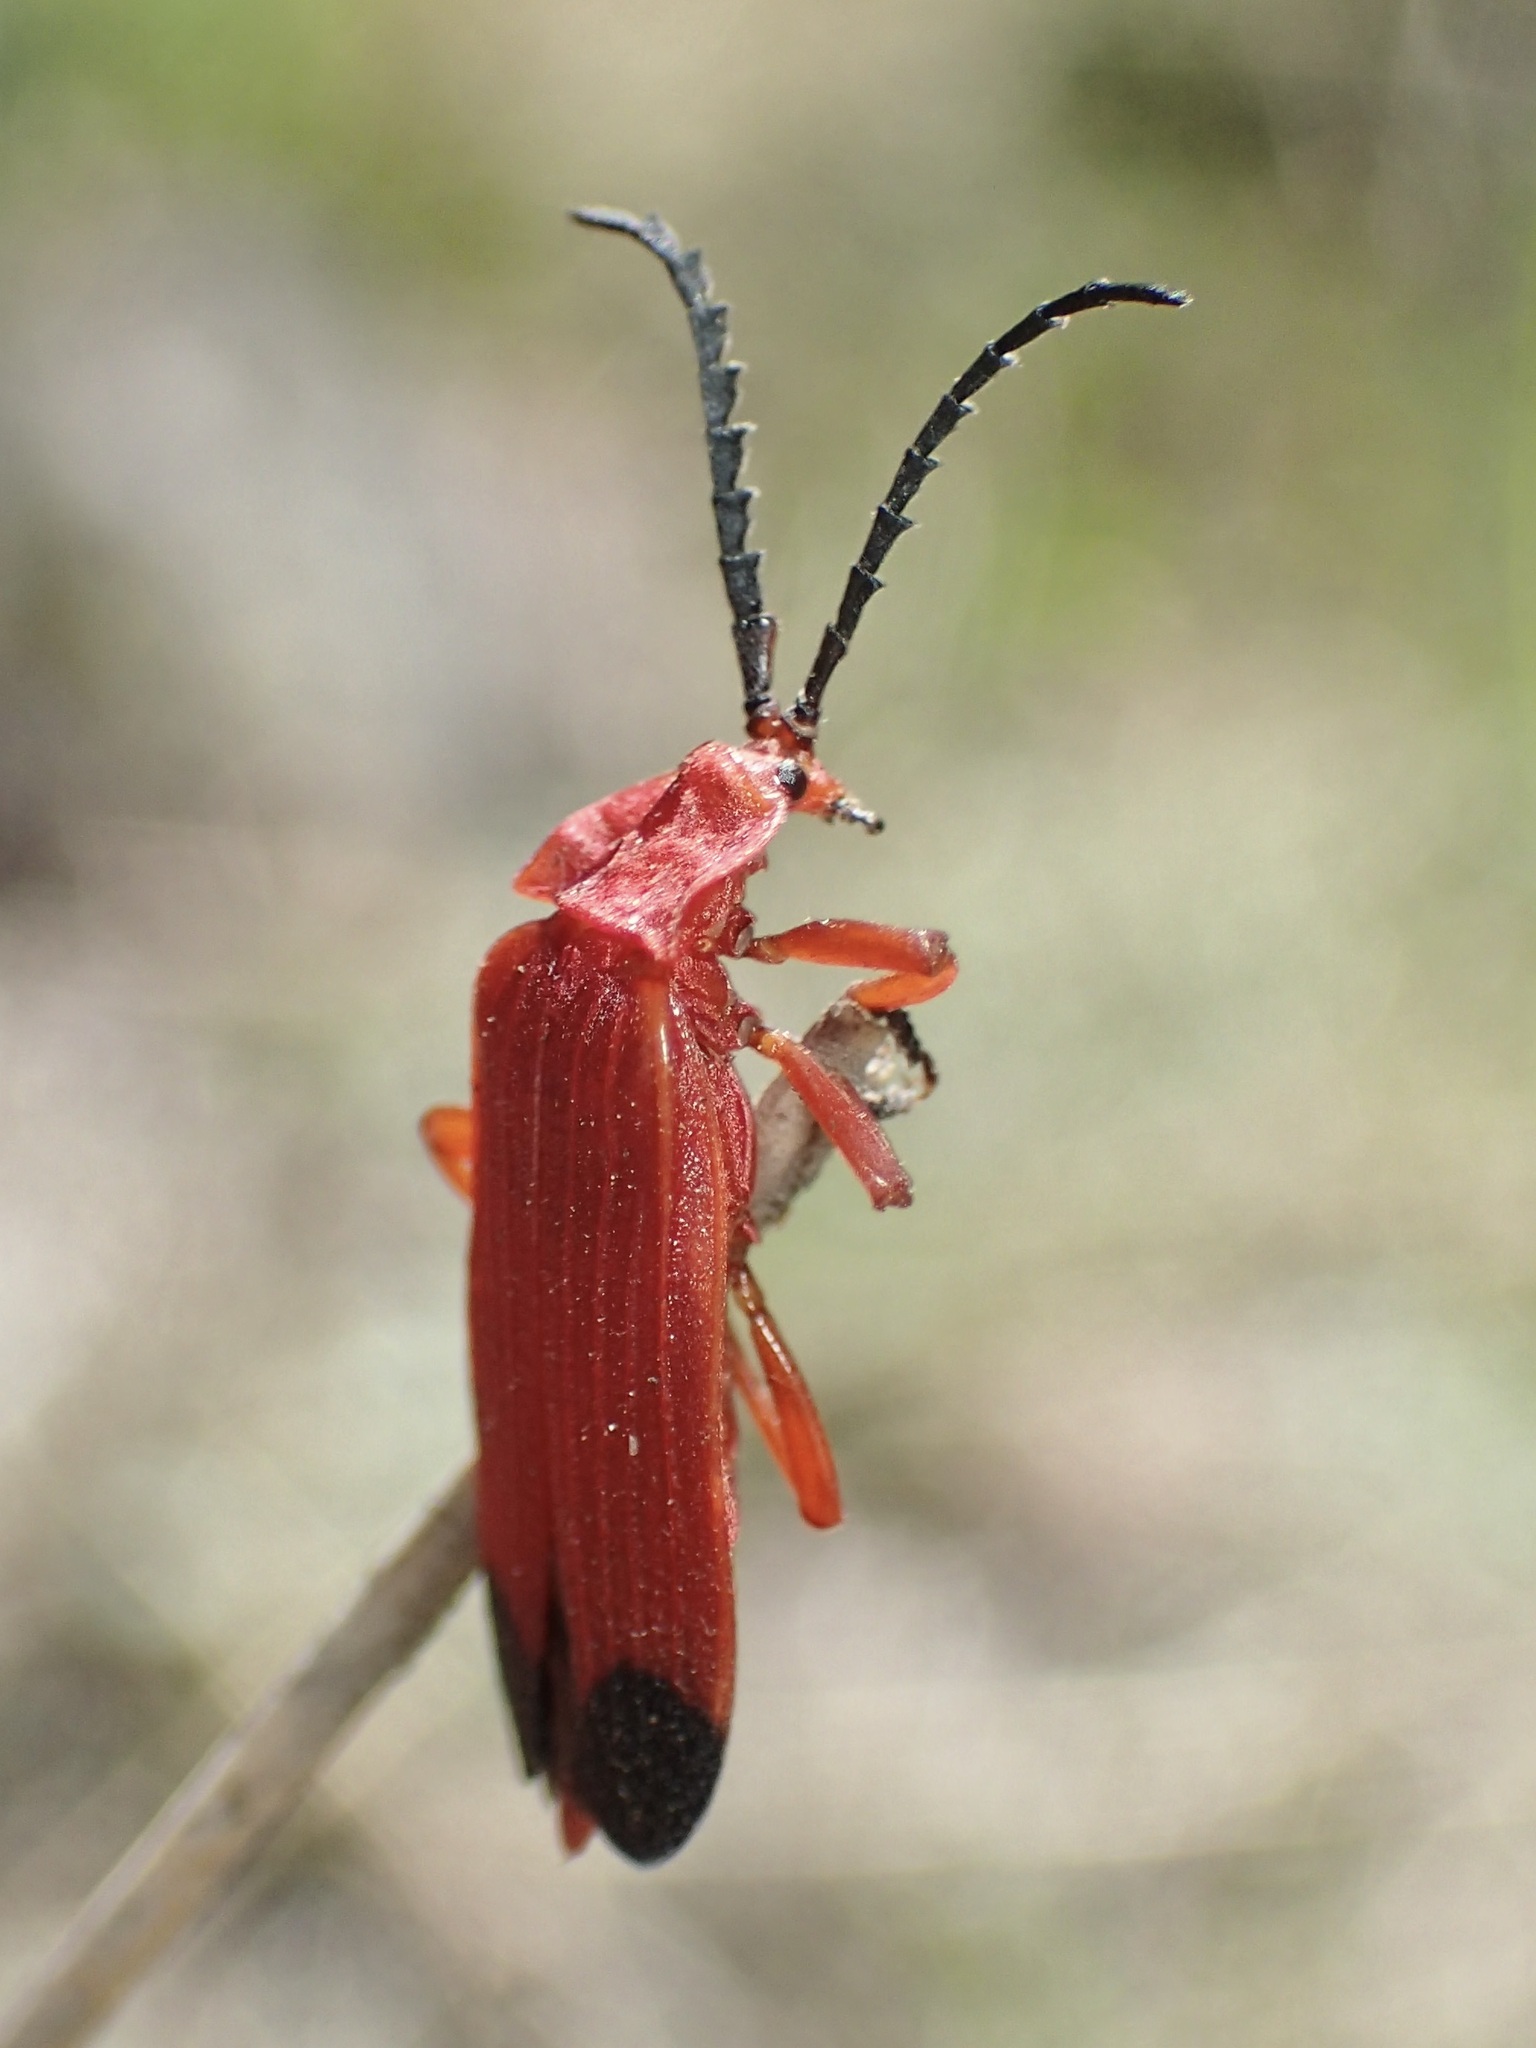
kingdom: Animalia
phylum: Arthropoda
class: Insecta
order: Coleoptera
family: Lycidae
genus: Lycus
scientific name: Lycus sanguineus
